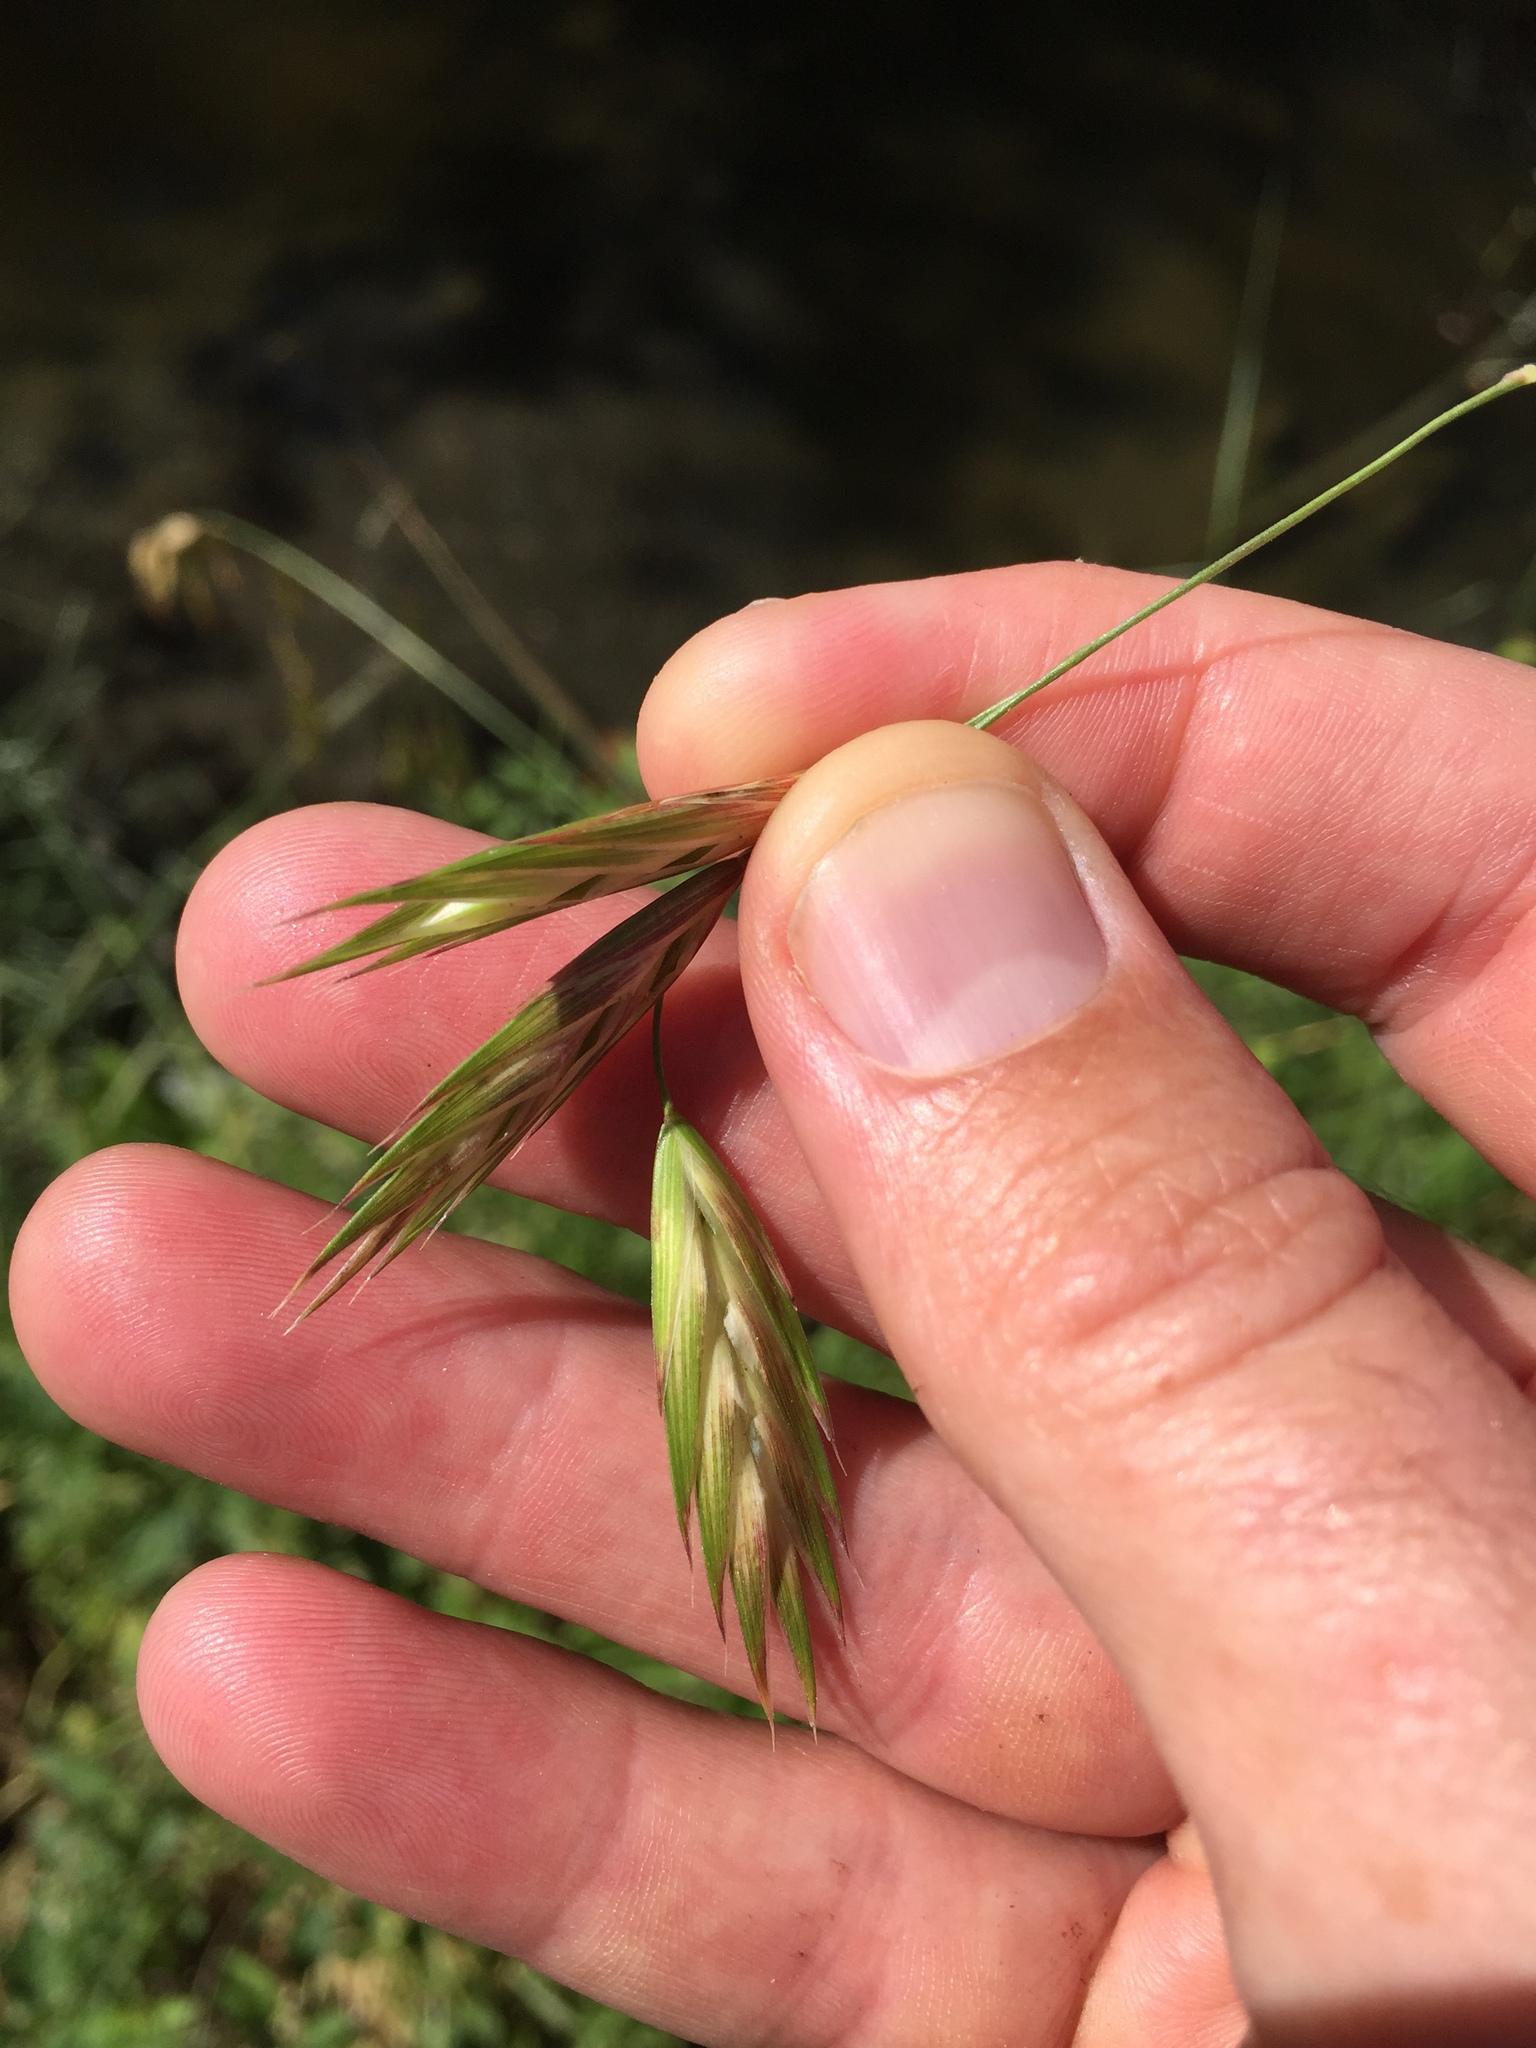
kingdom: Plantae
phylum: Tracheophyta
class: Liliopsida
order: Poales
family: Poaceae
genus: Bromus
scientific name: Bromus catharticus
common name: Rescuegrass
